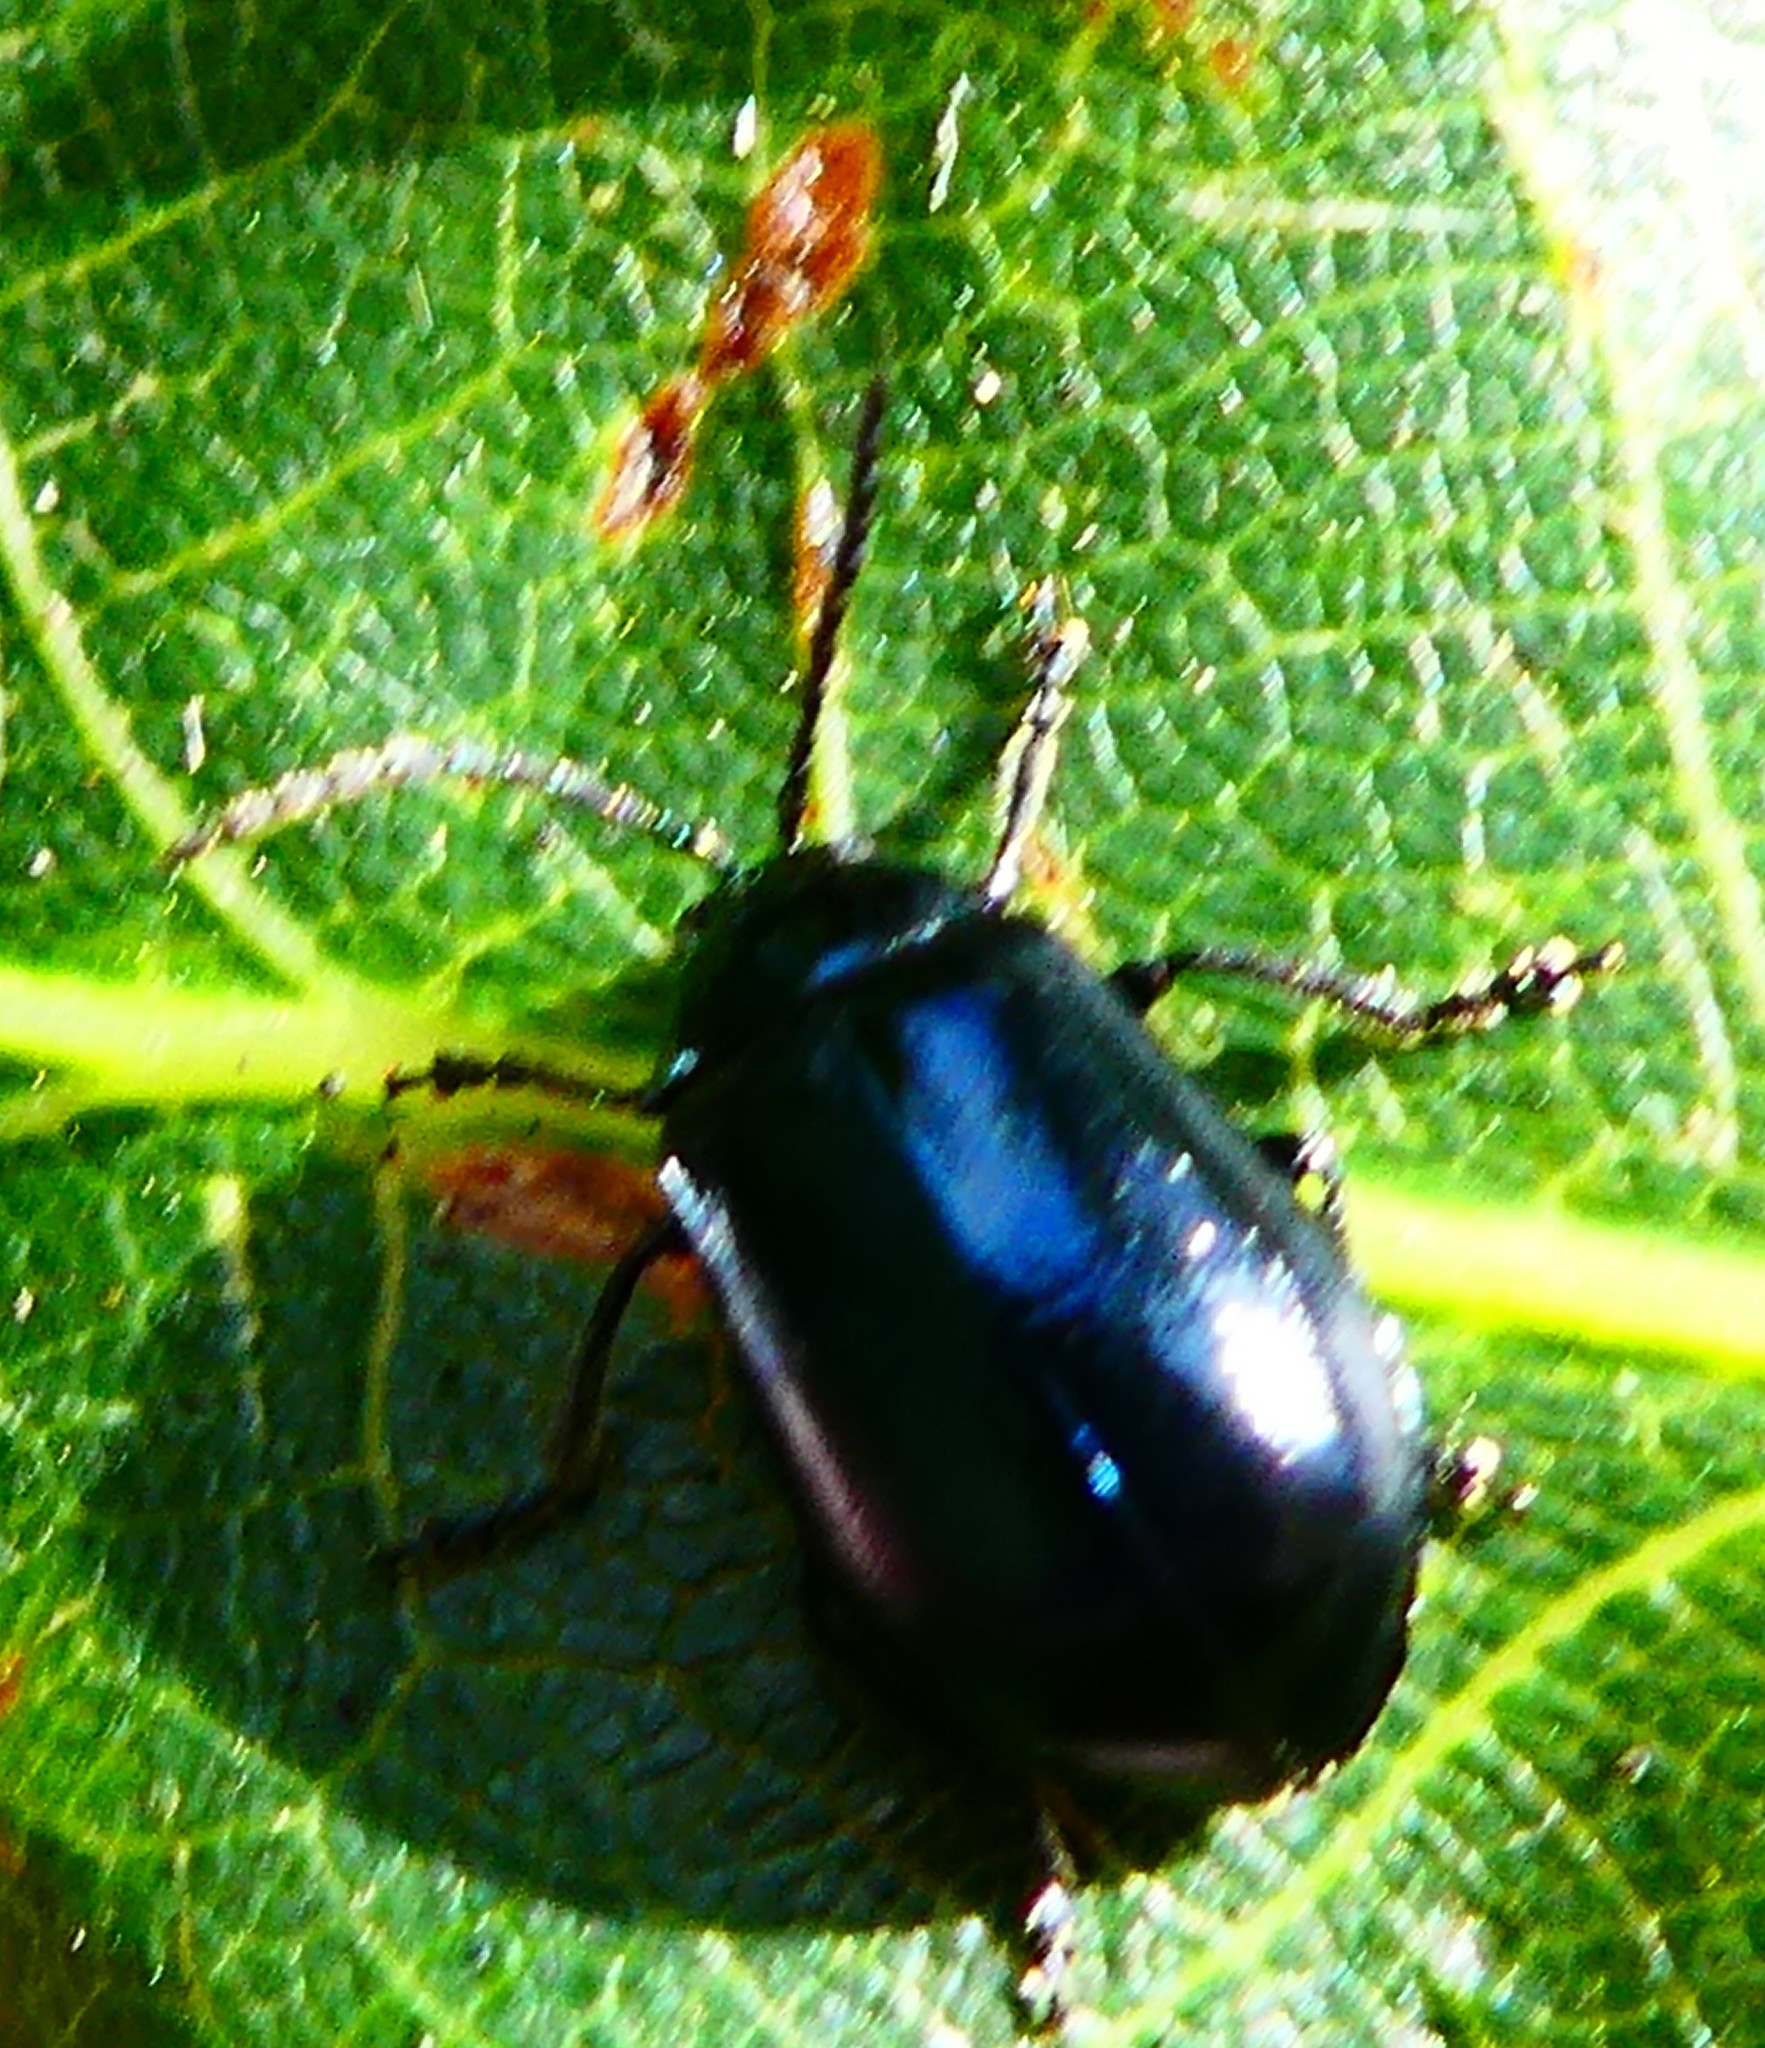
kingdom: Animalia
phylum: Arthropoda
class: Insecta
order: Coleoptera
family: Chrysomelidae
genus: Agelastica
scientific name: Agelastica alni
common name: Alder leaf beetle
